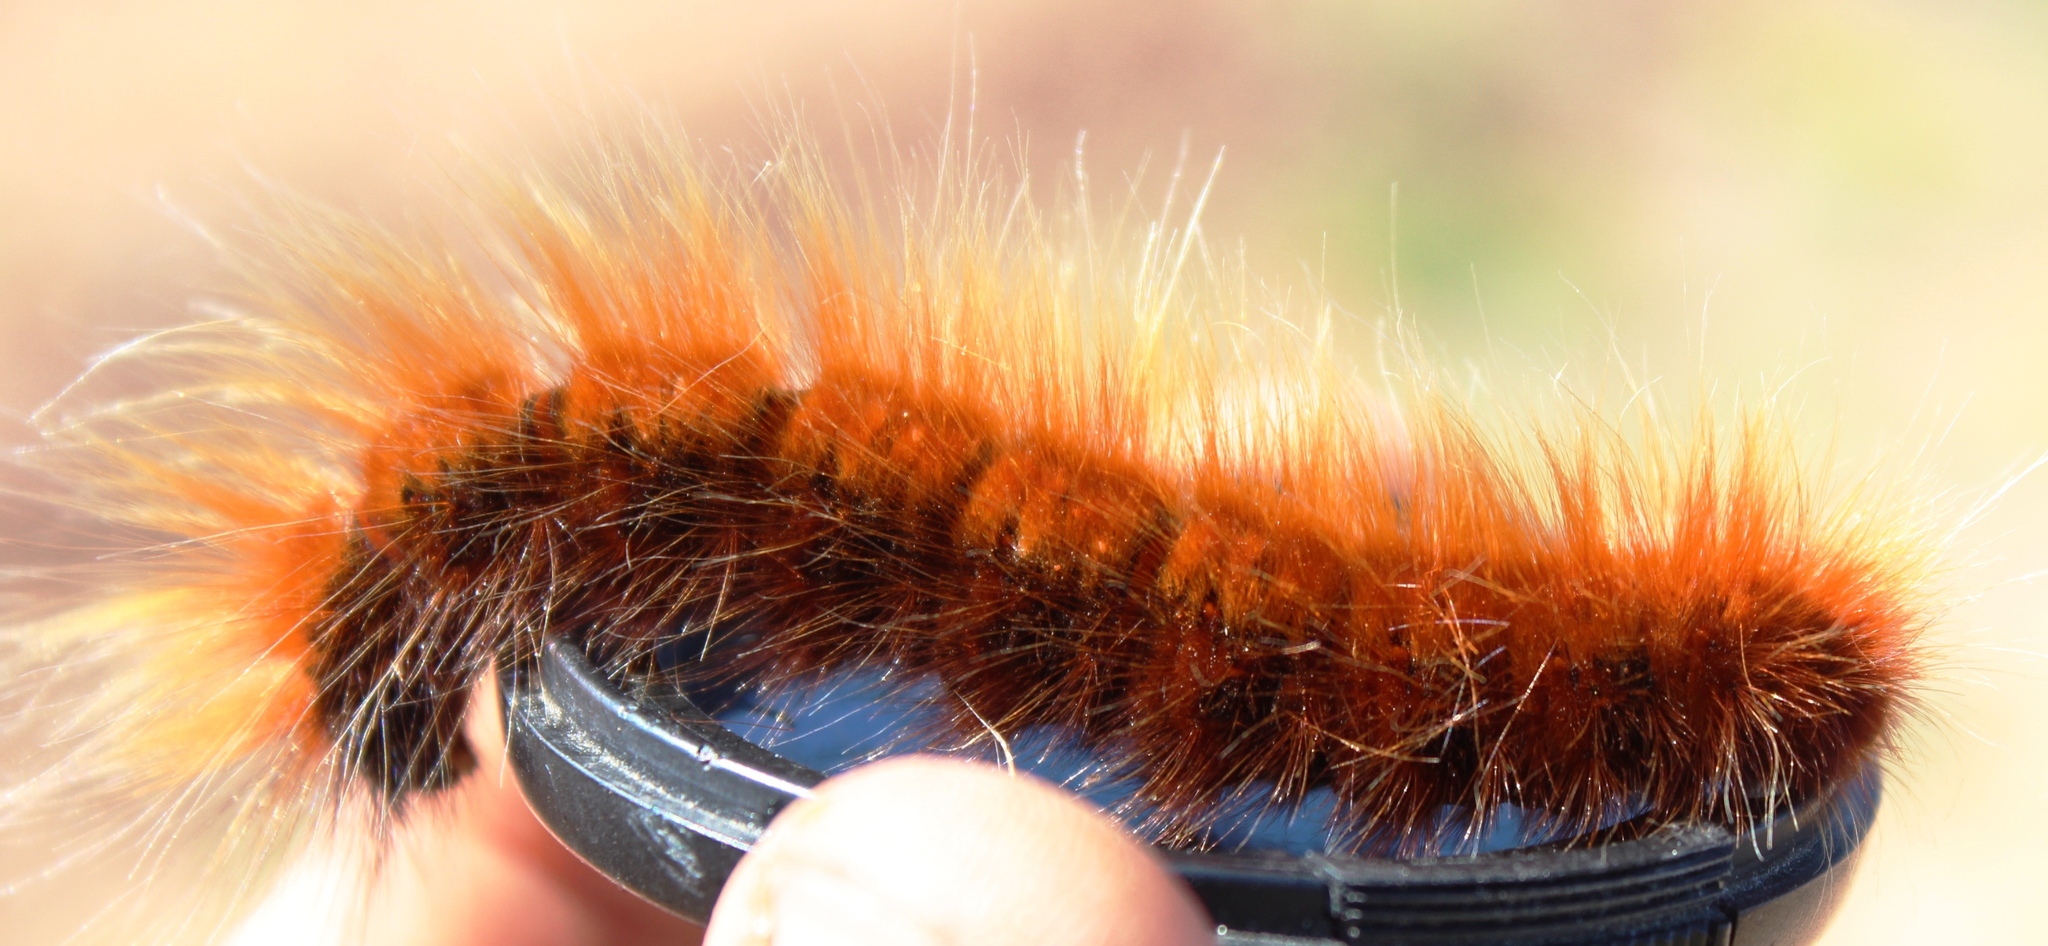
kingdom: Animalia
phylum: Arthropoda
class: Insecta
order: Lepidoptera
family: Lasiocampidae
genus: Mesocelis
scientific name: Mesocelis monticola
